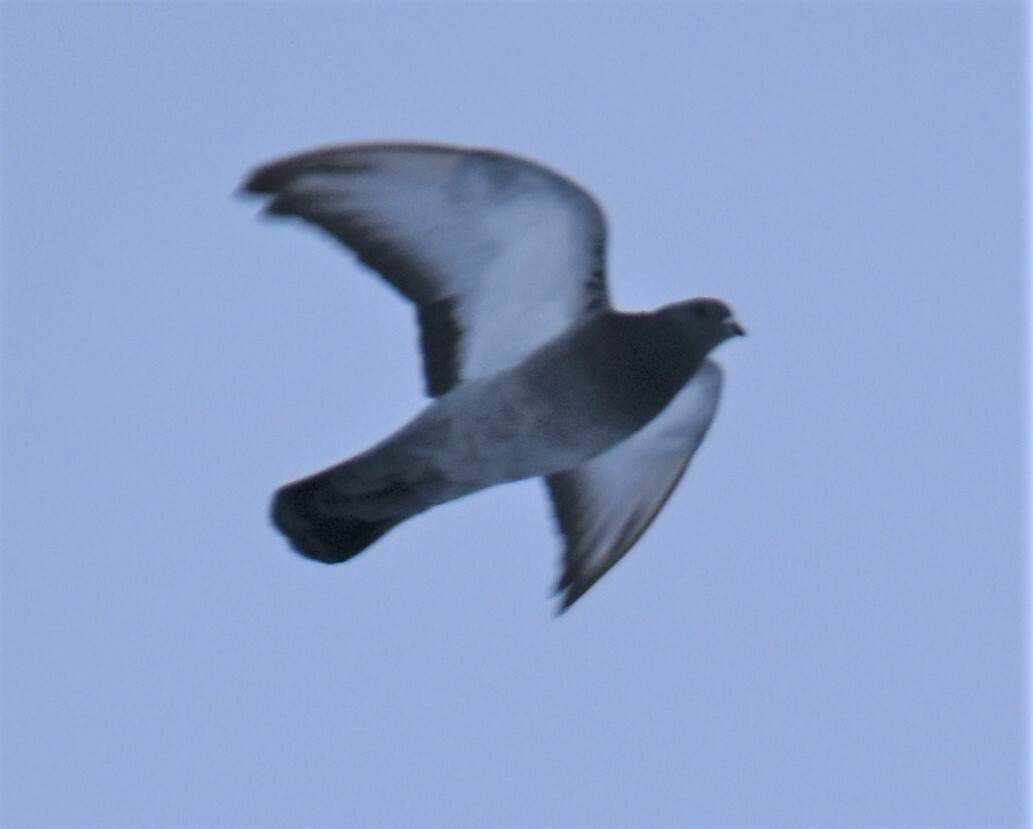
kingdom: Animalia
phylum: Chordata
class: Aves
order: Columbiformes
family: Columbidae
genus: Columba
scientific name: Columba livia
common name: Rock pigeon
